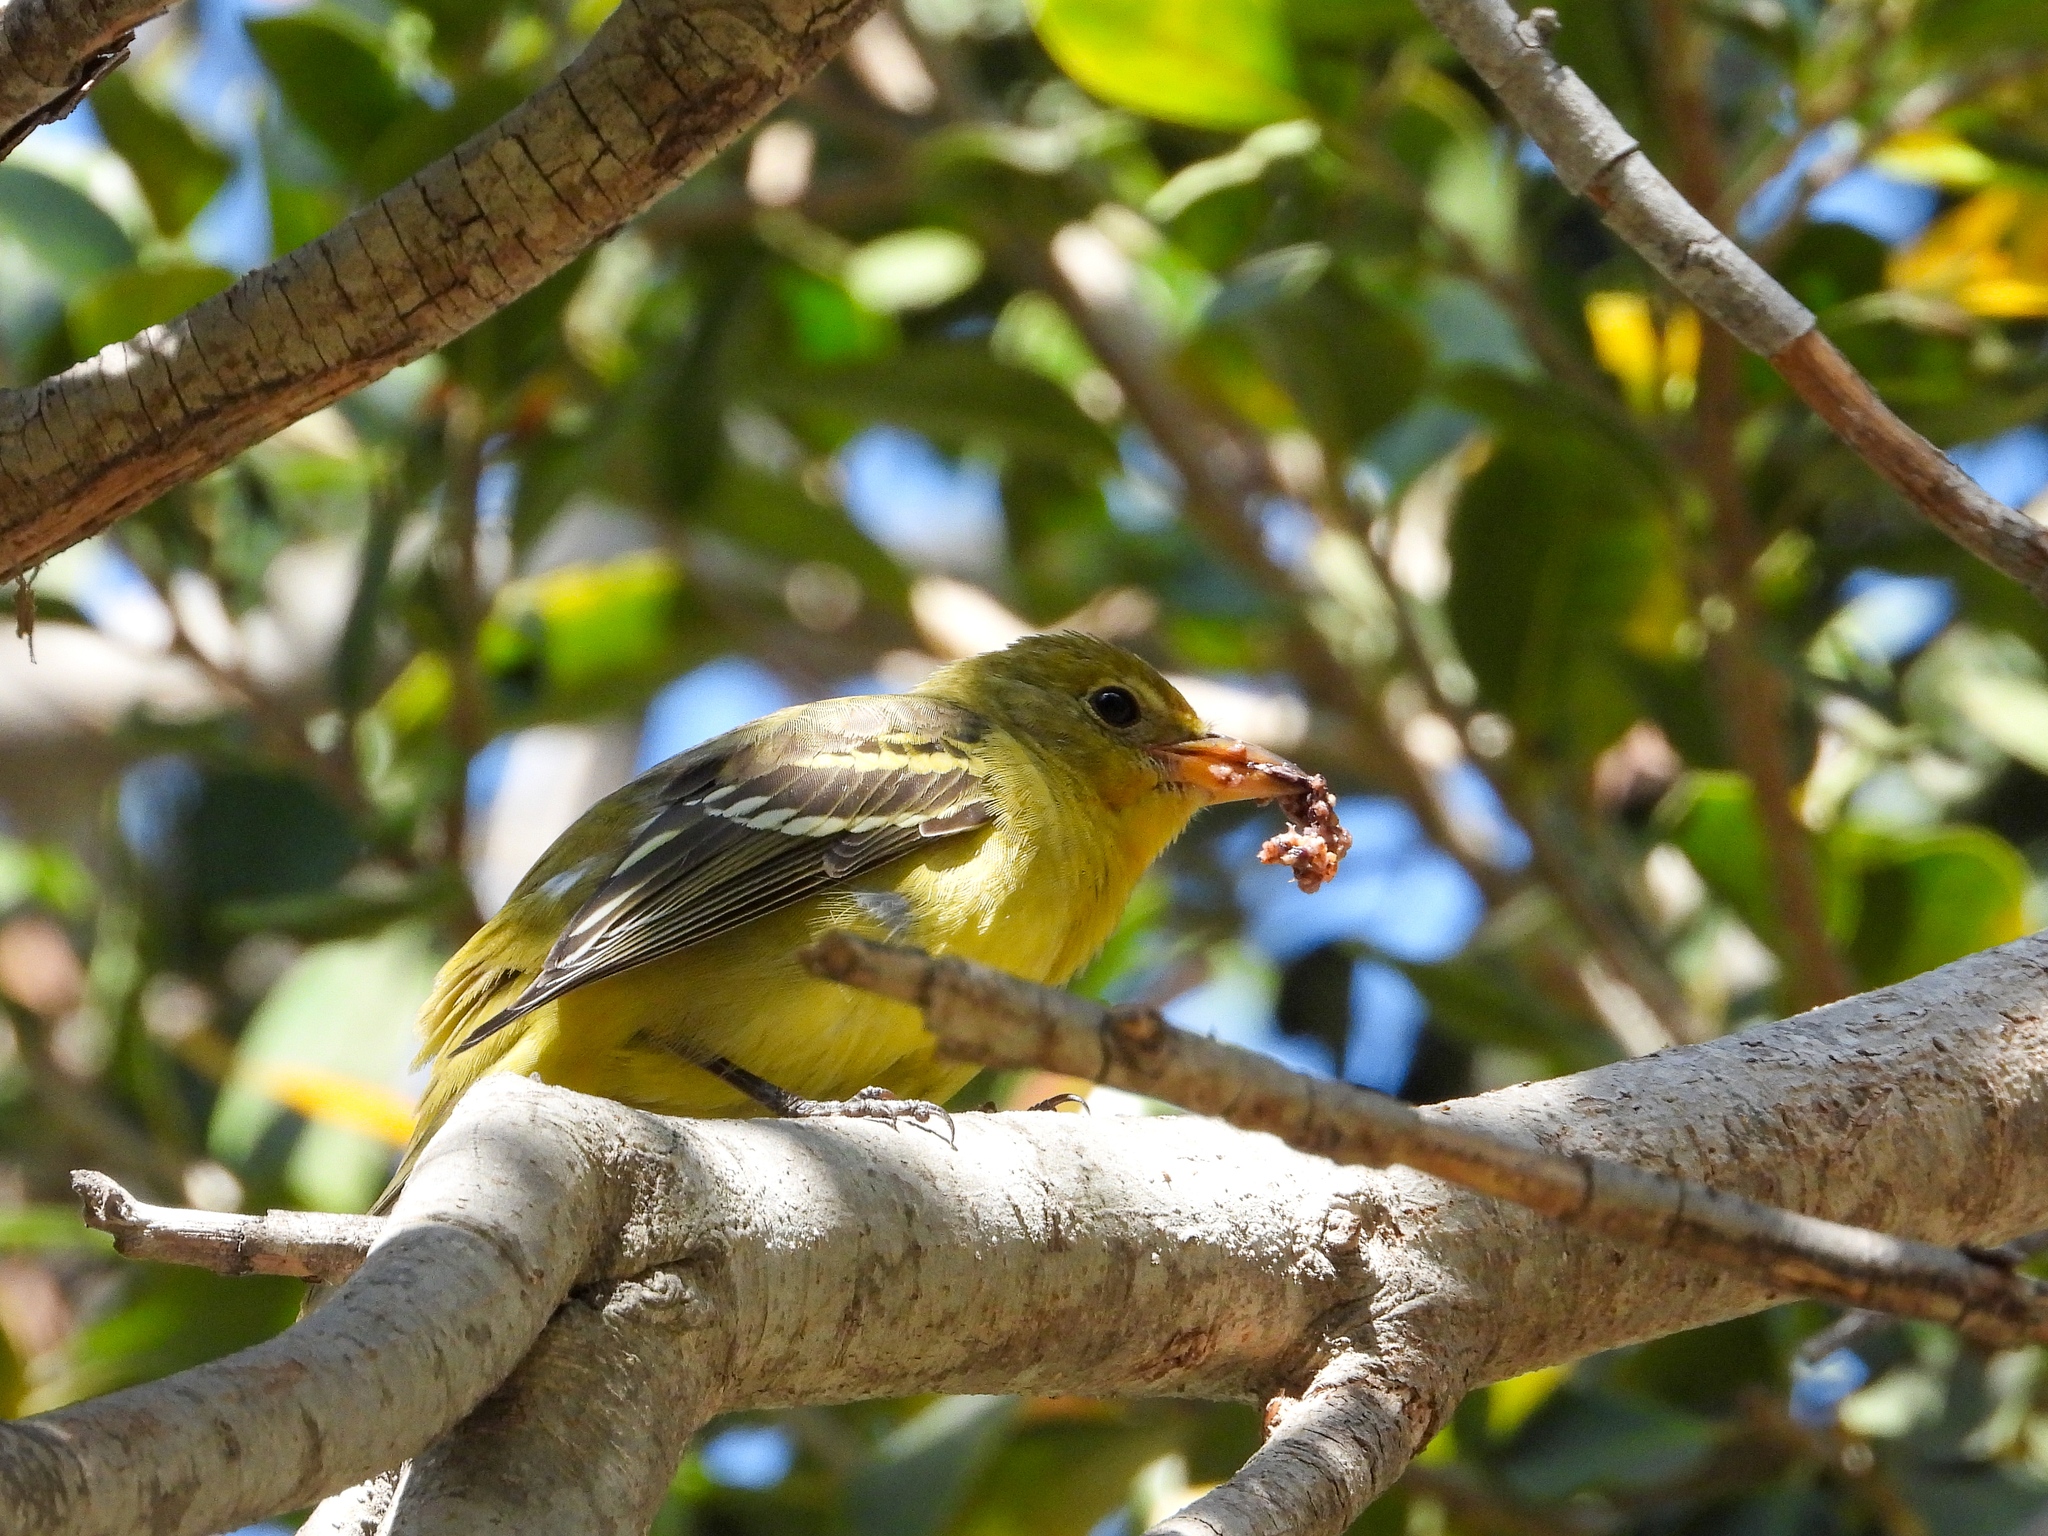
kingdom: Animalia
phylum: Chordata
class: Aves
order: Passeriformes
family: Cardinalidae
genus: Piranga
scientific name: Piranga ludoviciana
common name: Western tanager
